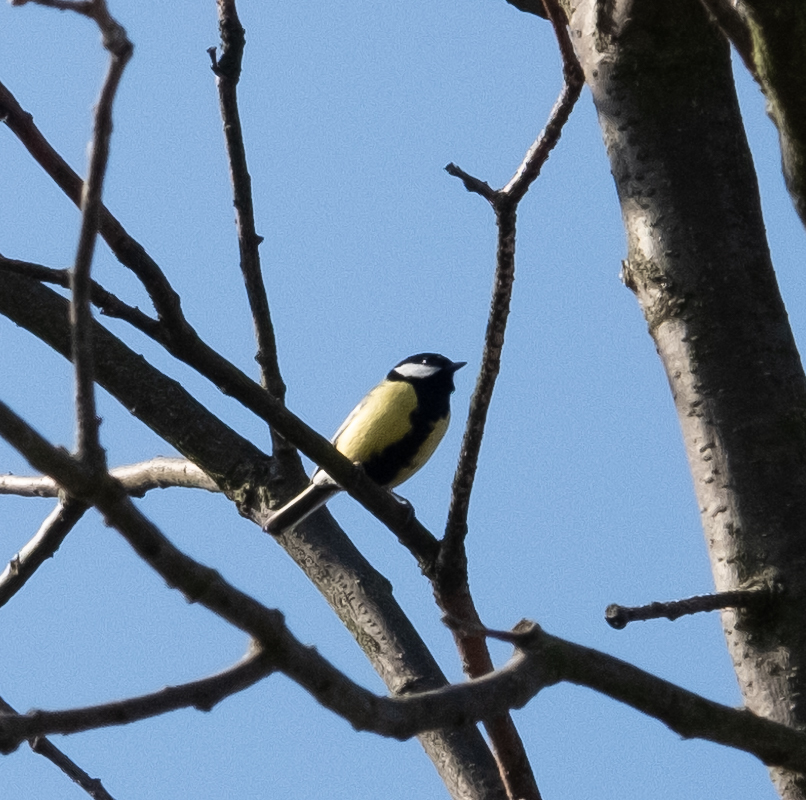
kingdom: Animalia
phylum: Chordata
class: Aves
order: Passeriformes
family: Paridae
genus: Parus
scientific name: Parus major
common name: Great tit
